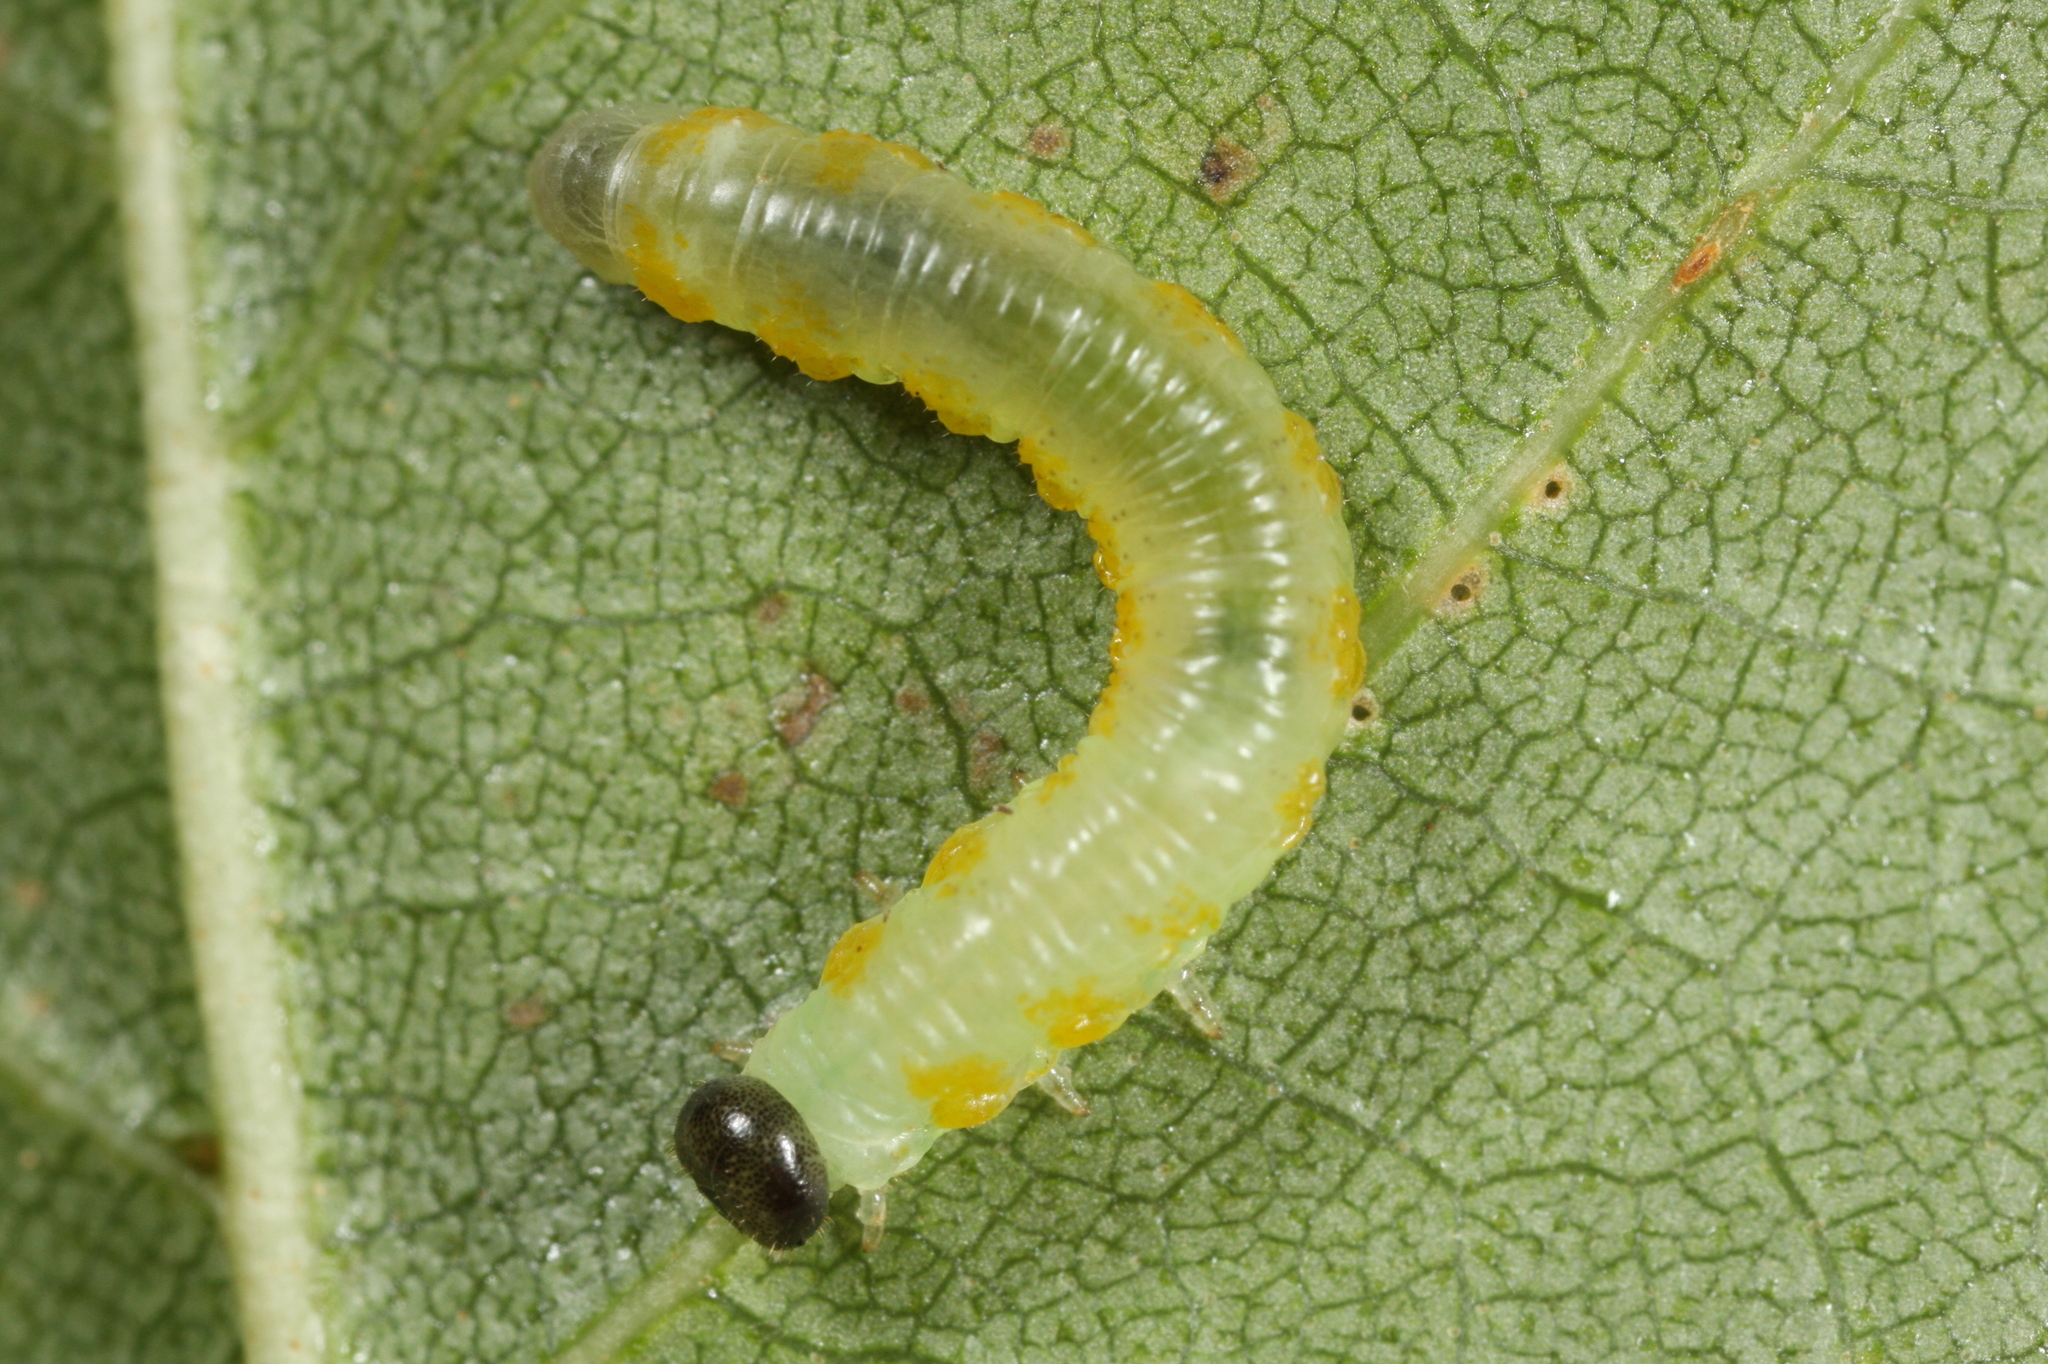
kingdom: Animalia
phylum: Arthropoda
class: Insecta
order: Hymenoptera
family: Tenthredinidae
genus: Pristiphora
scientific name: Pristiphora testacea
